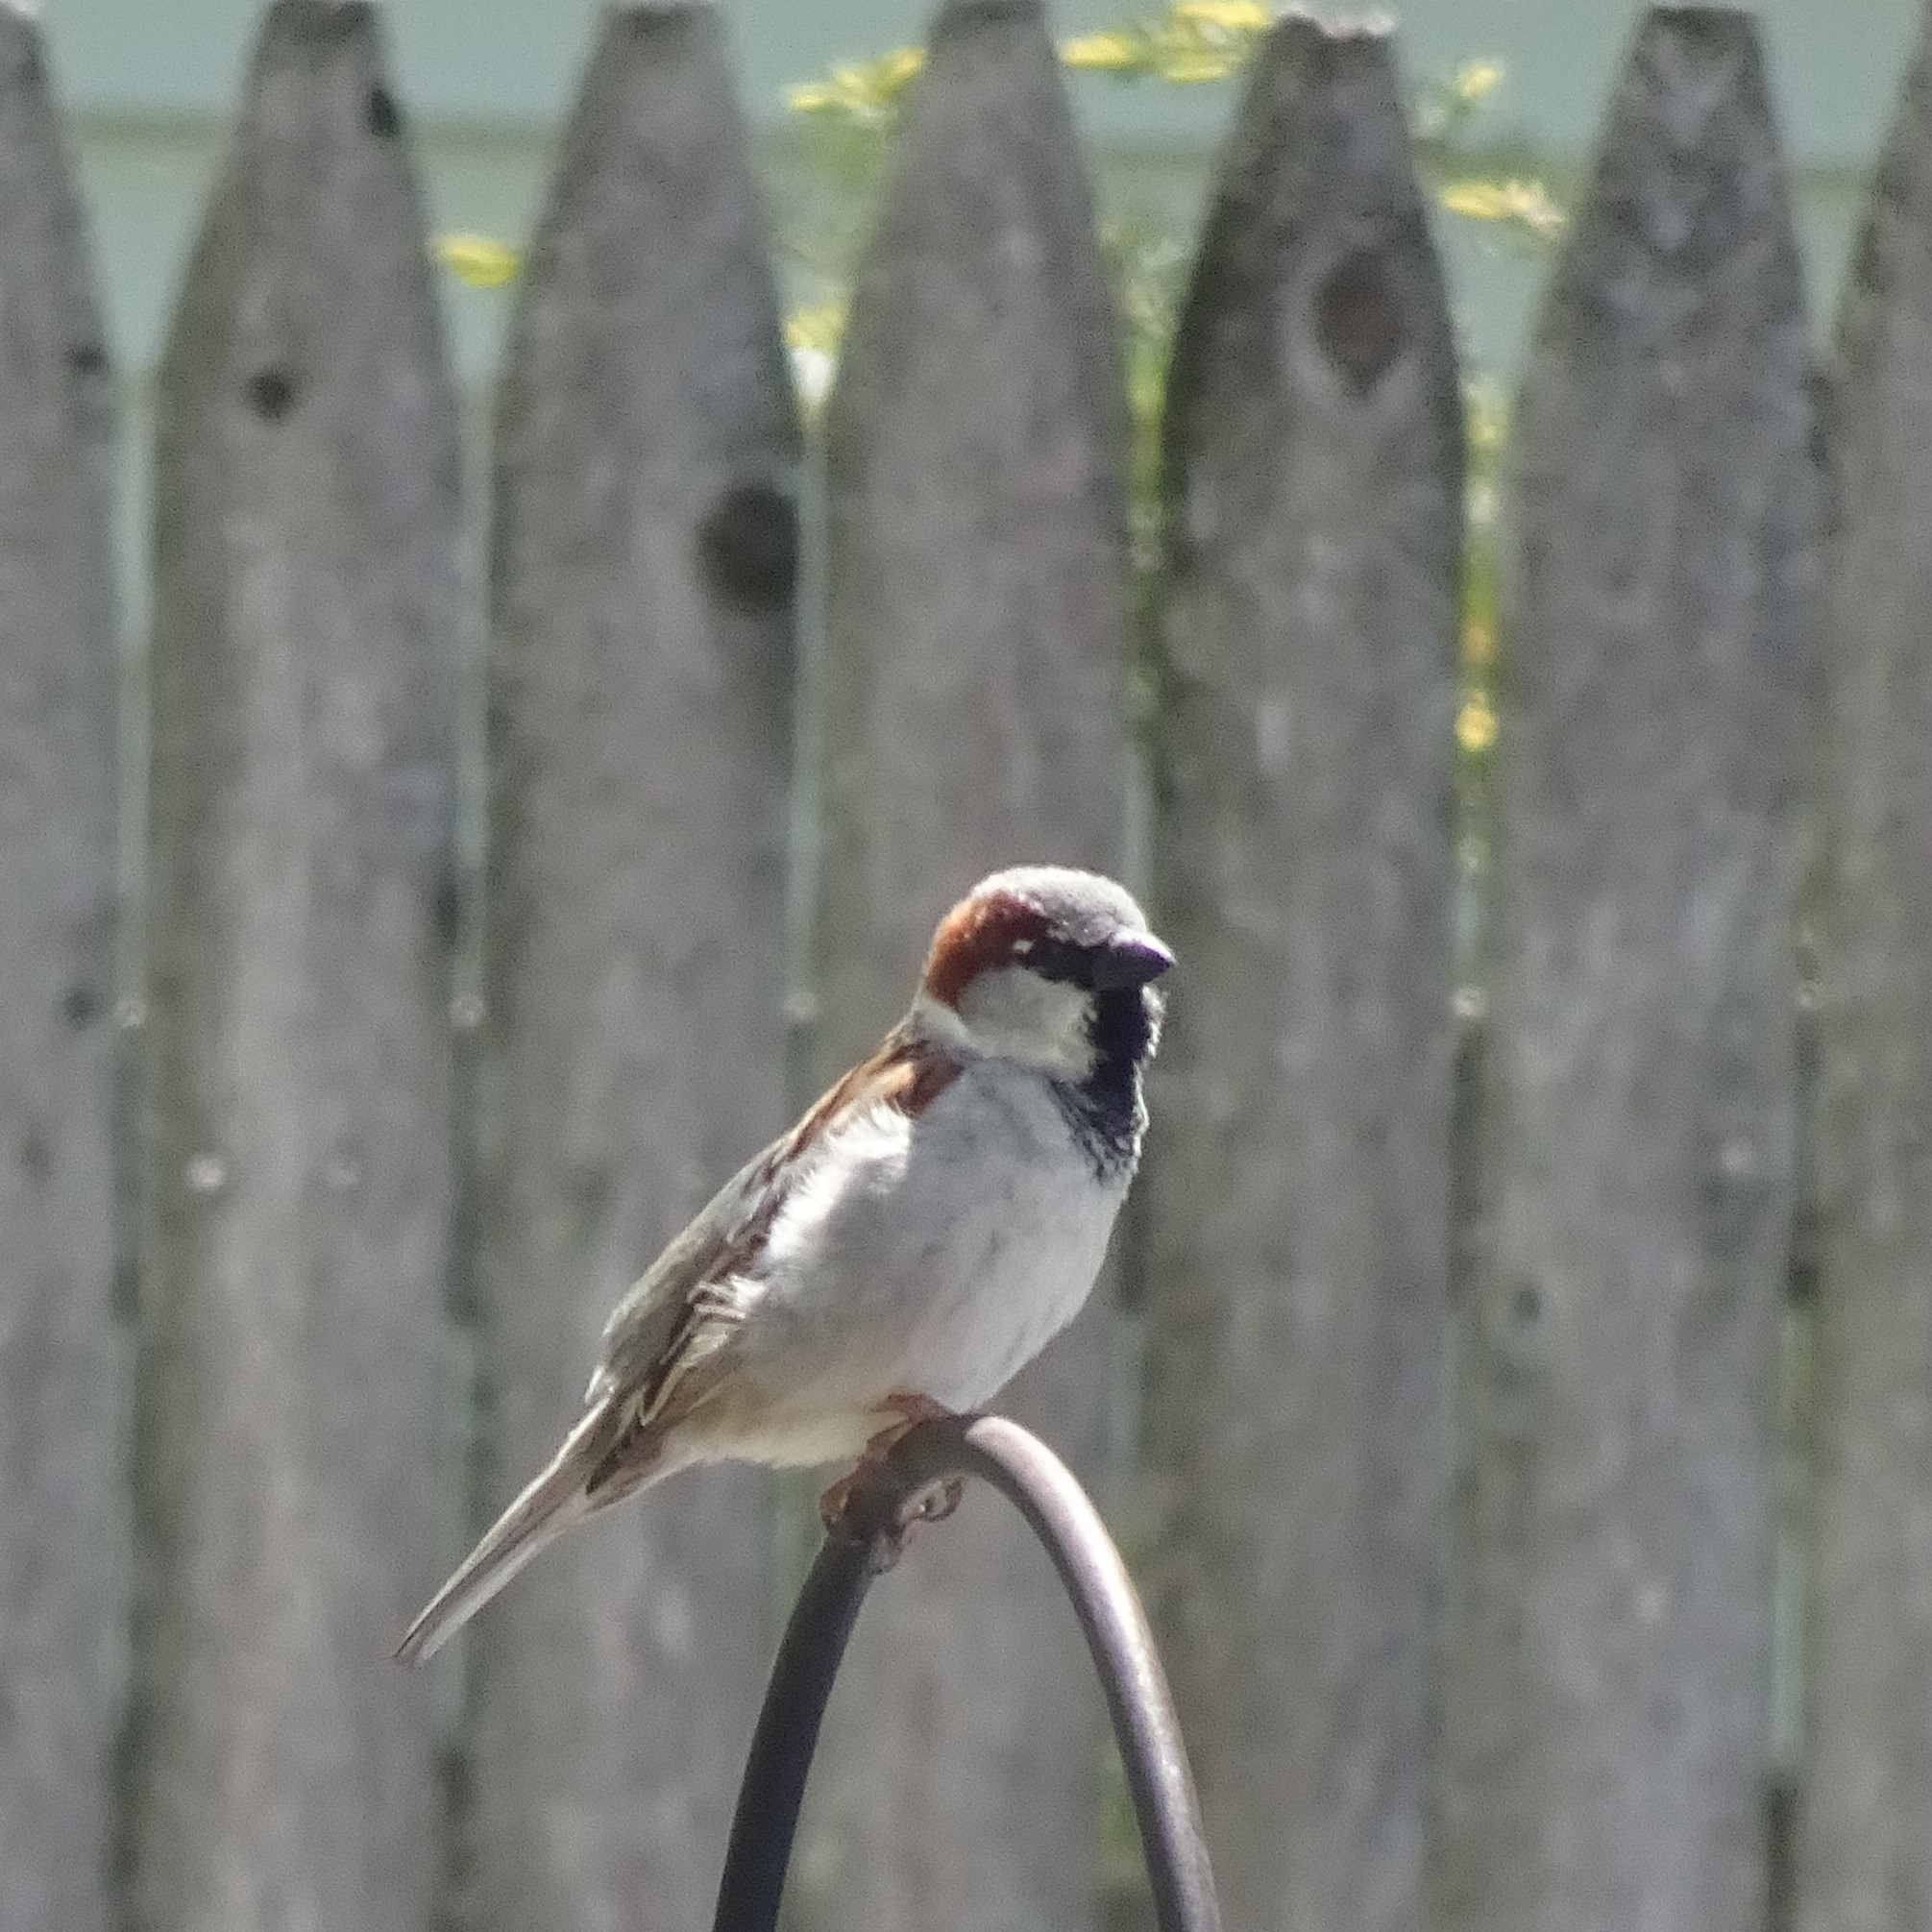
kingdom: Animalia
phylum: Chordata
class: Aves
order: Passeriformes
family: Passeridae
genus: Passer
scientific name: Passer domesticus
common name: House sparrow
